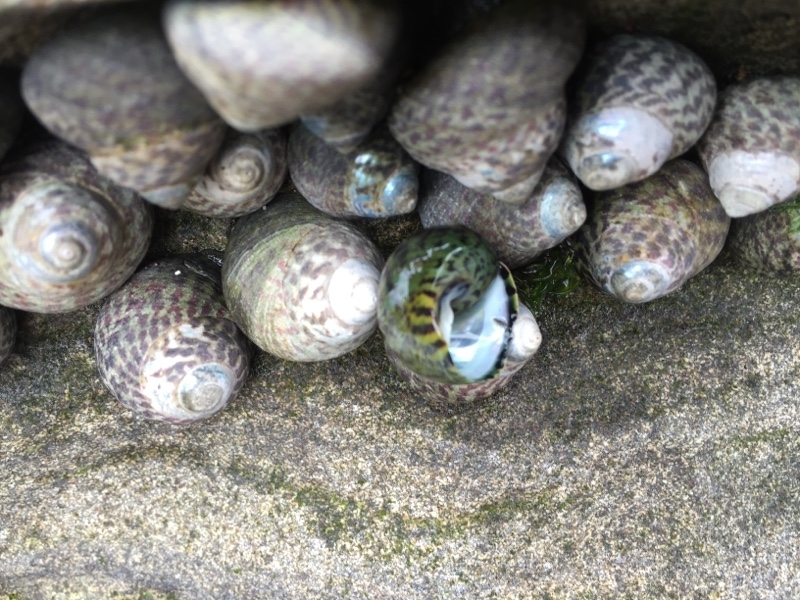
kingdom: Animalia
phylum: Mollusca
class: Gastropoda
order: Trochida
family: Trochidae
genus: Phorcus
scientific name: Phorcus sauciatus
